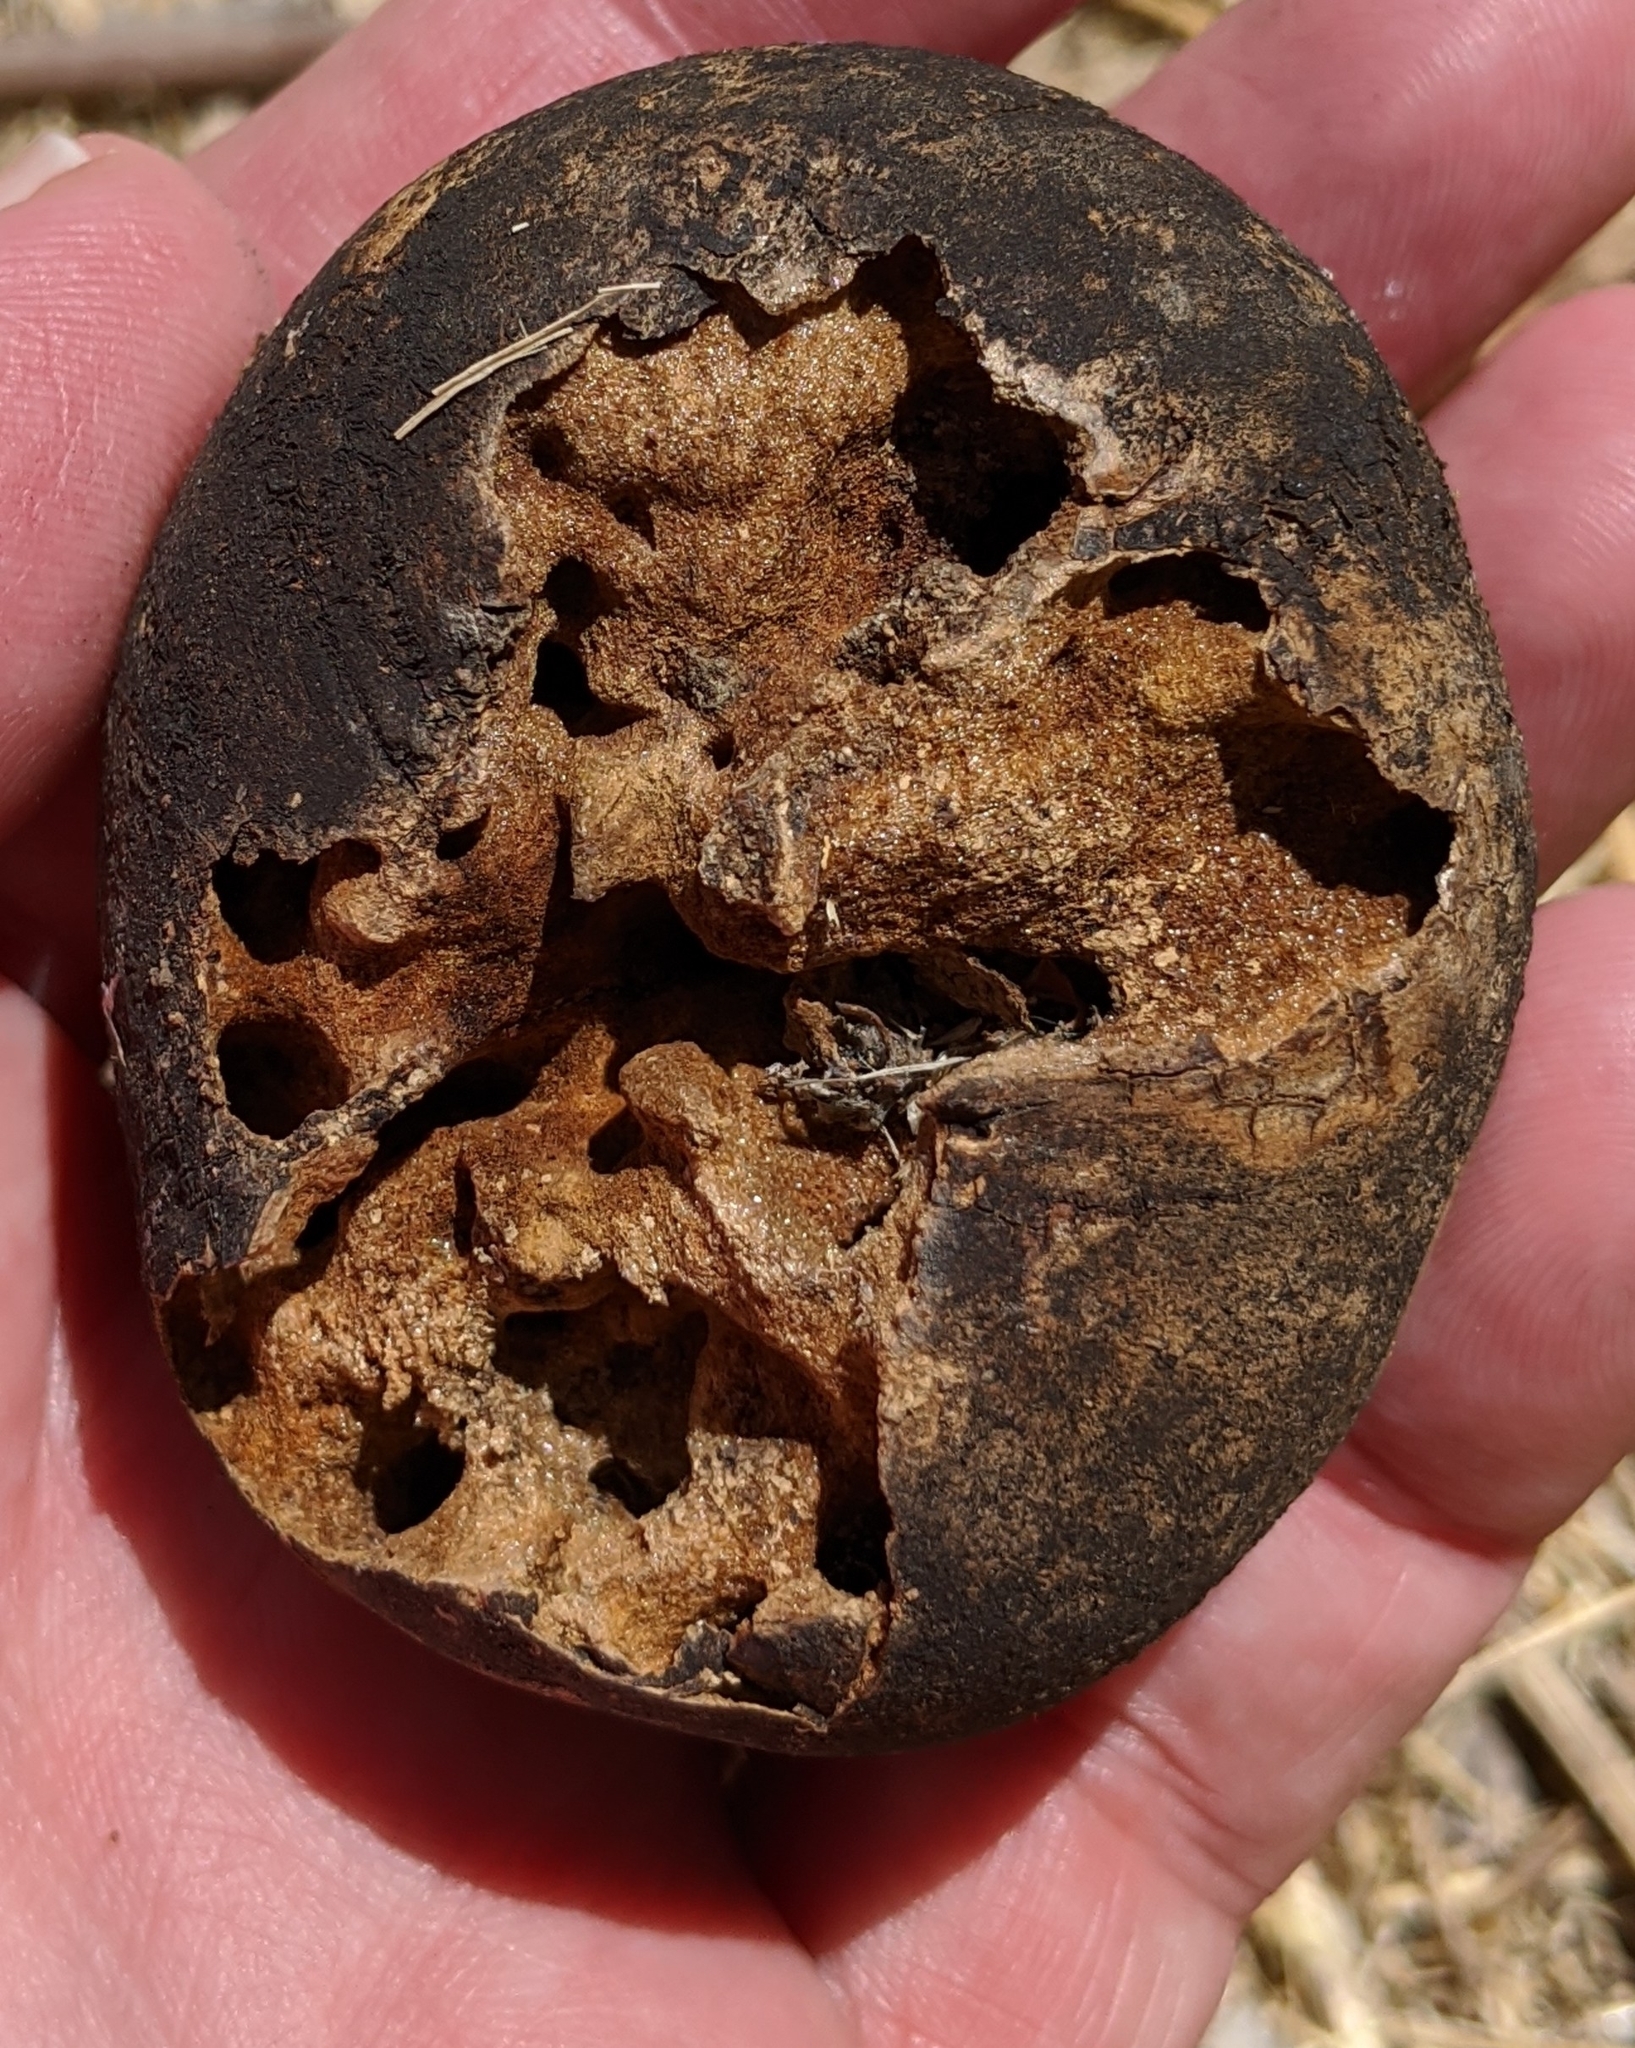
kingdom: Animalia
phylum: Arthropoda
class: Insecta
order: Hymenoptera
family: Cynipidae
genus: Andricus
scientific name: Andricus quercuscalifornicus
